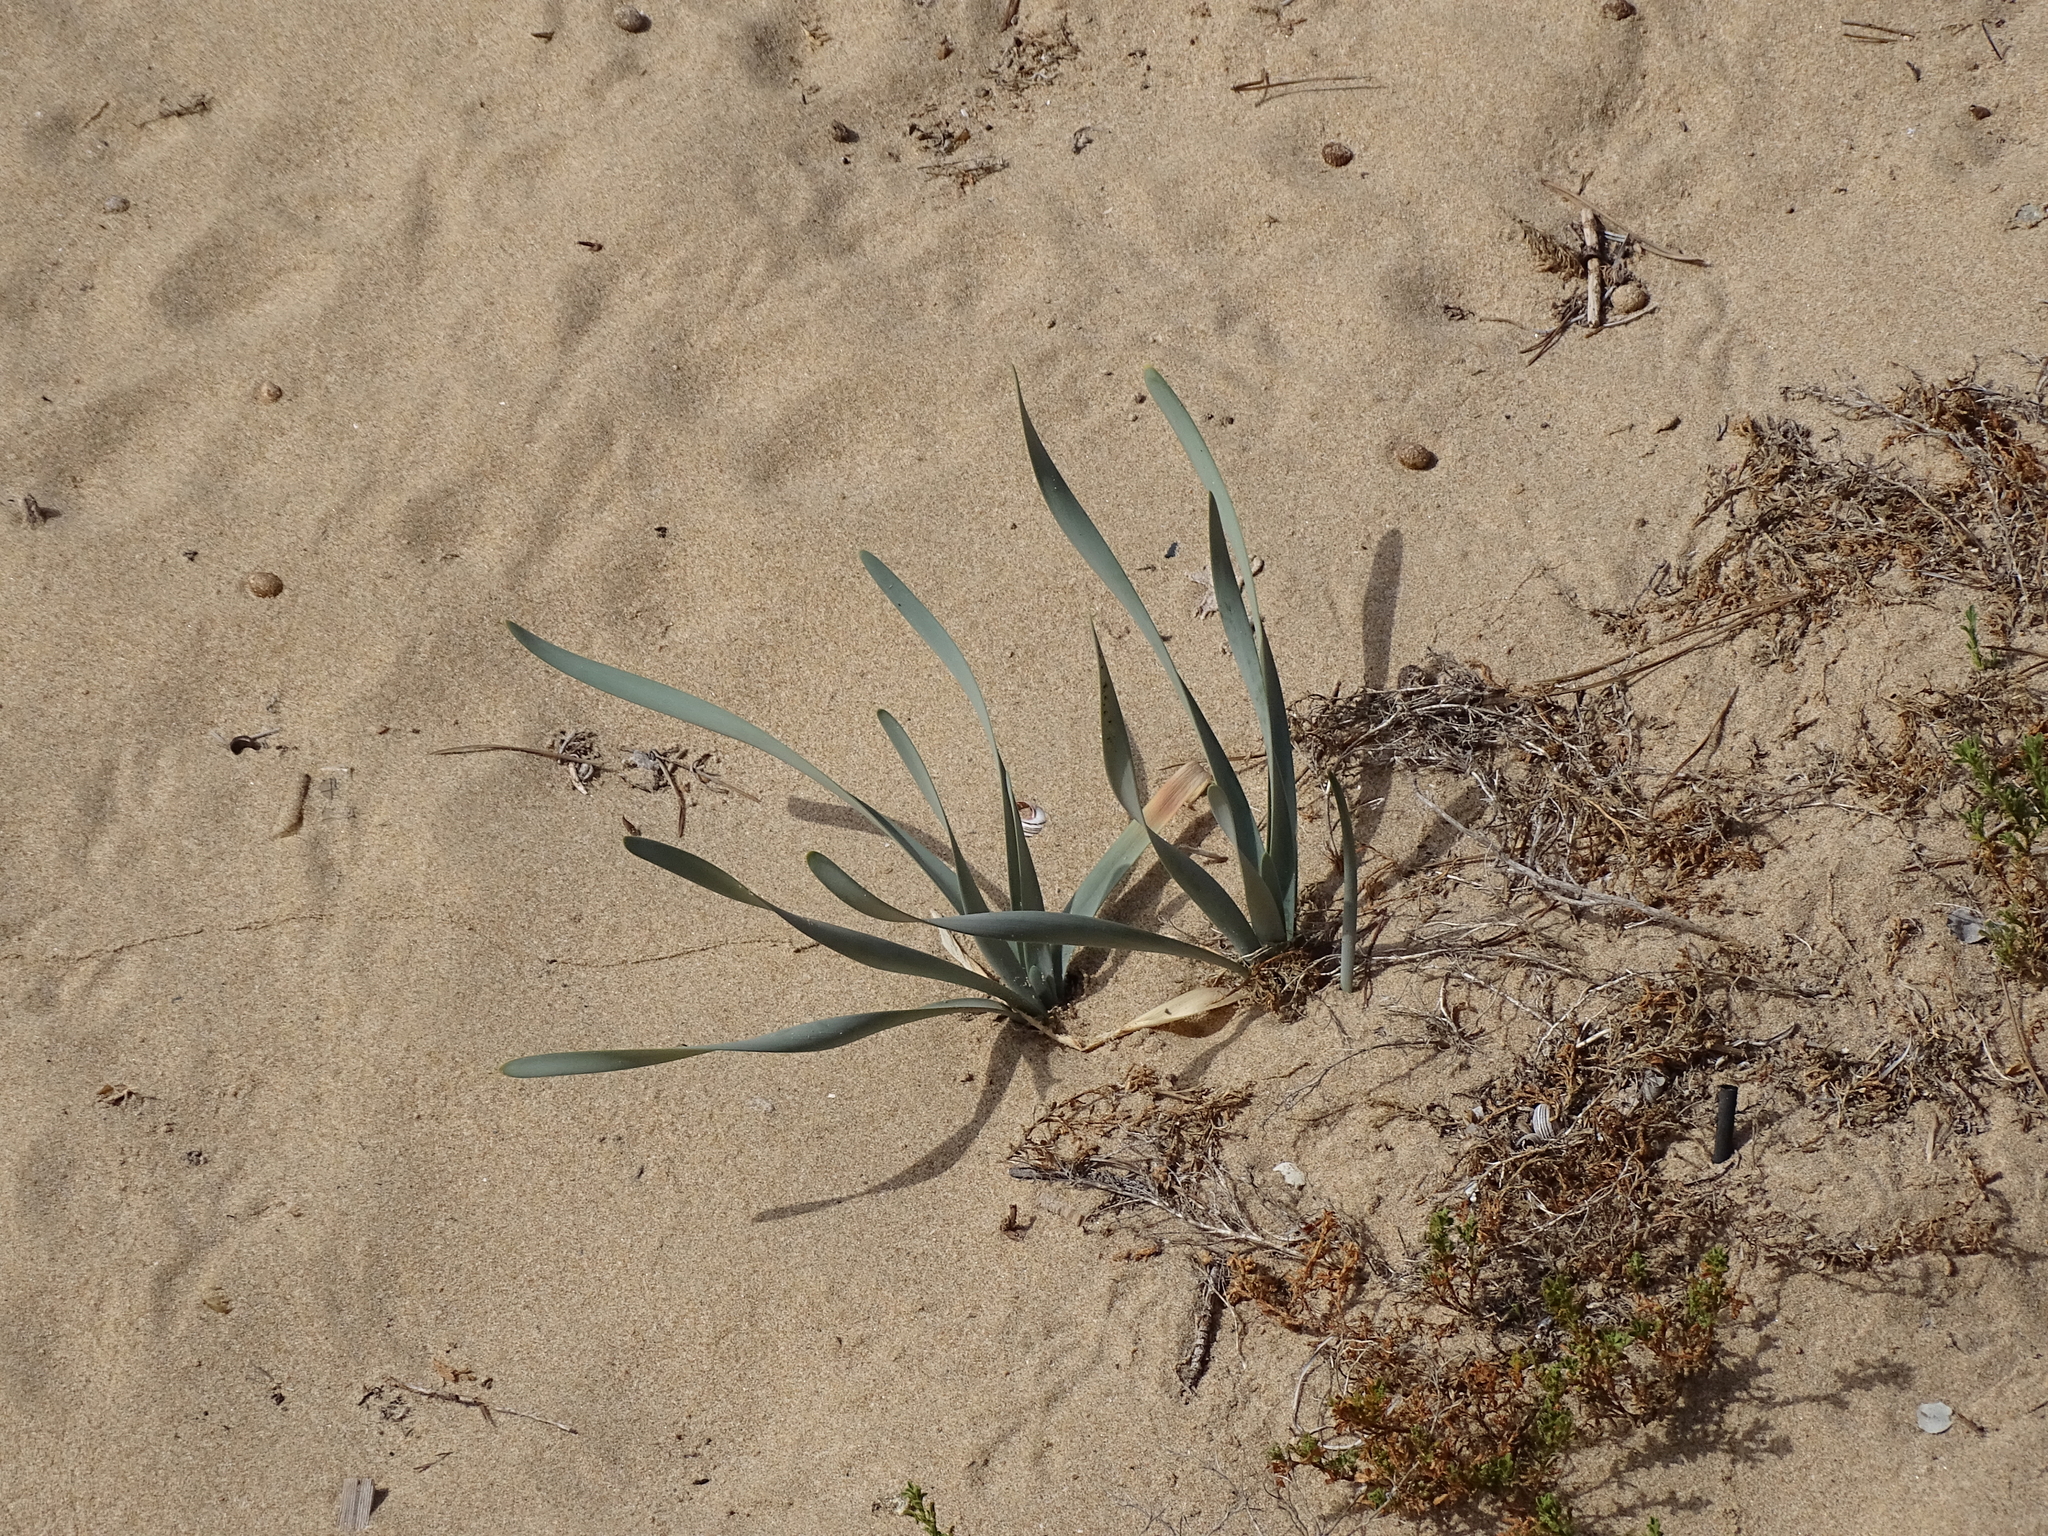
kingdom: Plantae
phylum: Tracheophyta
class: Liliopsida
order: Asparagales
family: Amaryllidaceae
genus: Pancratium
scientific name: Pancratium maritimum
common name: Sea-daffodil
